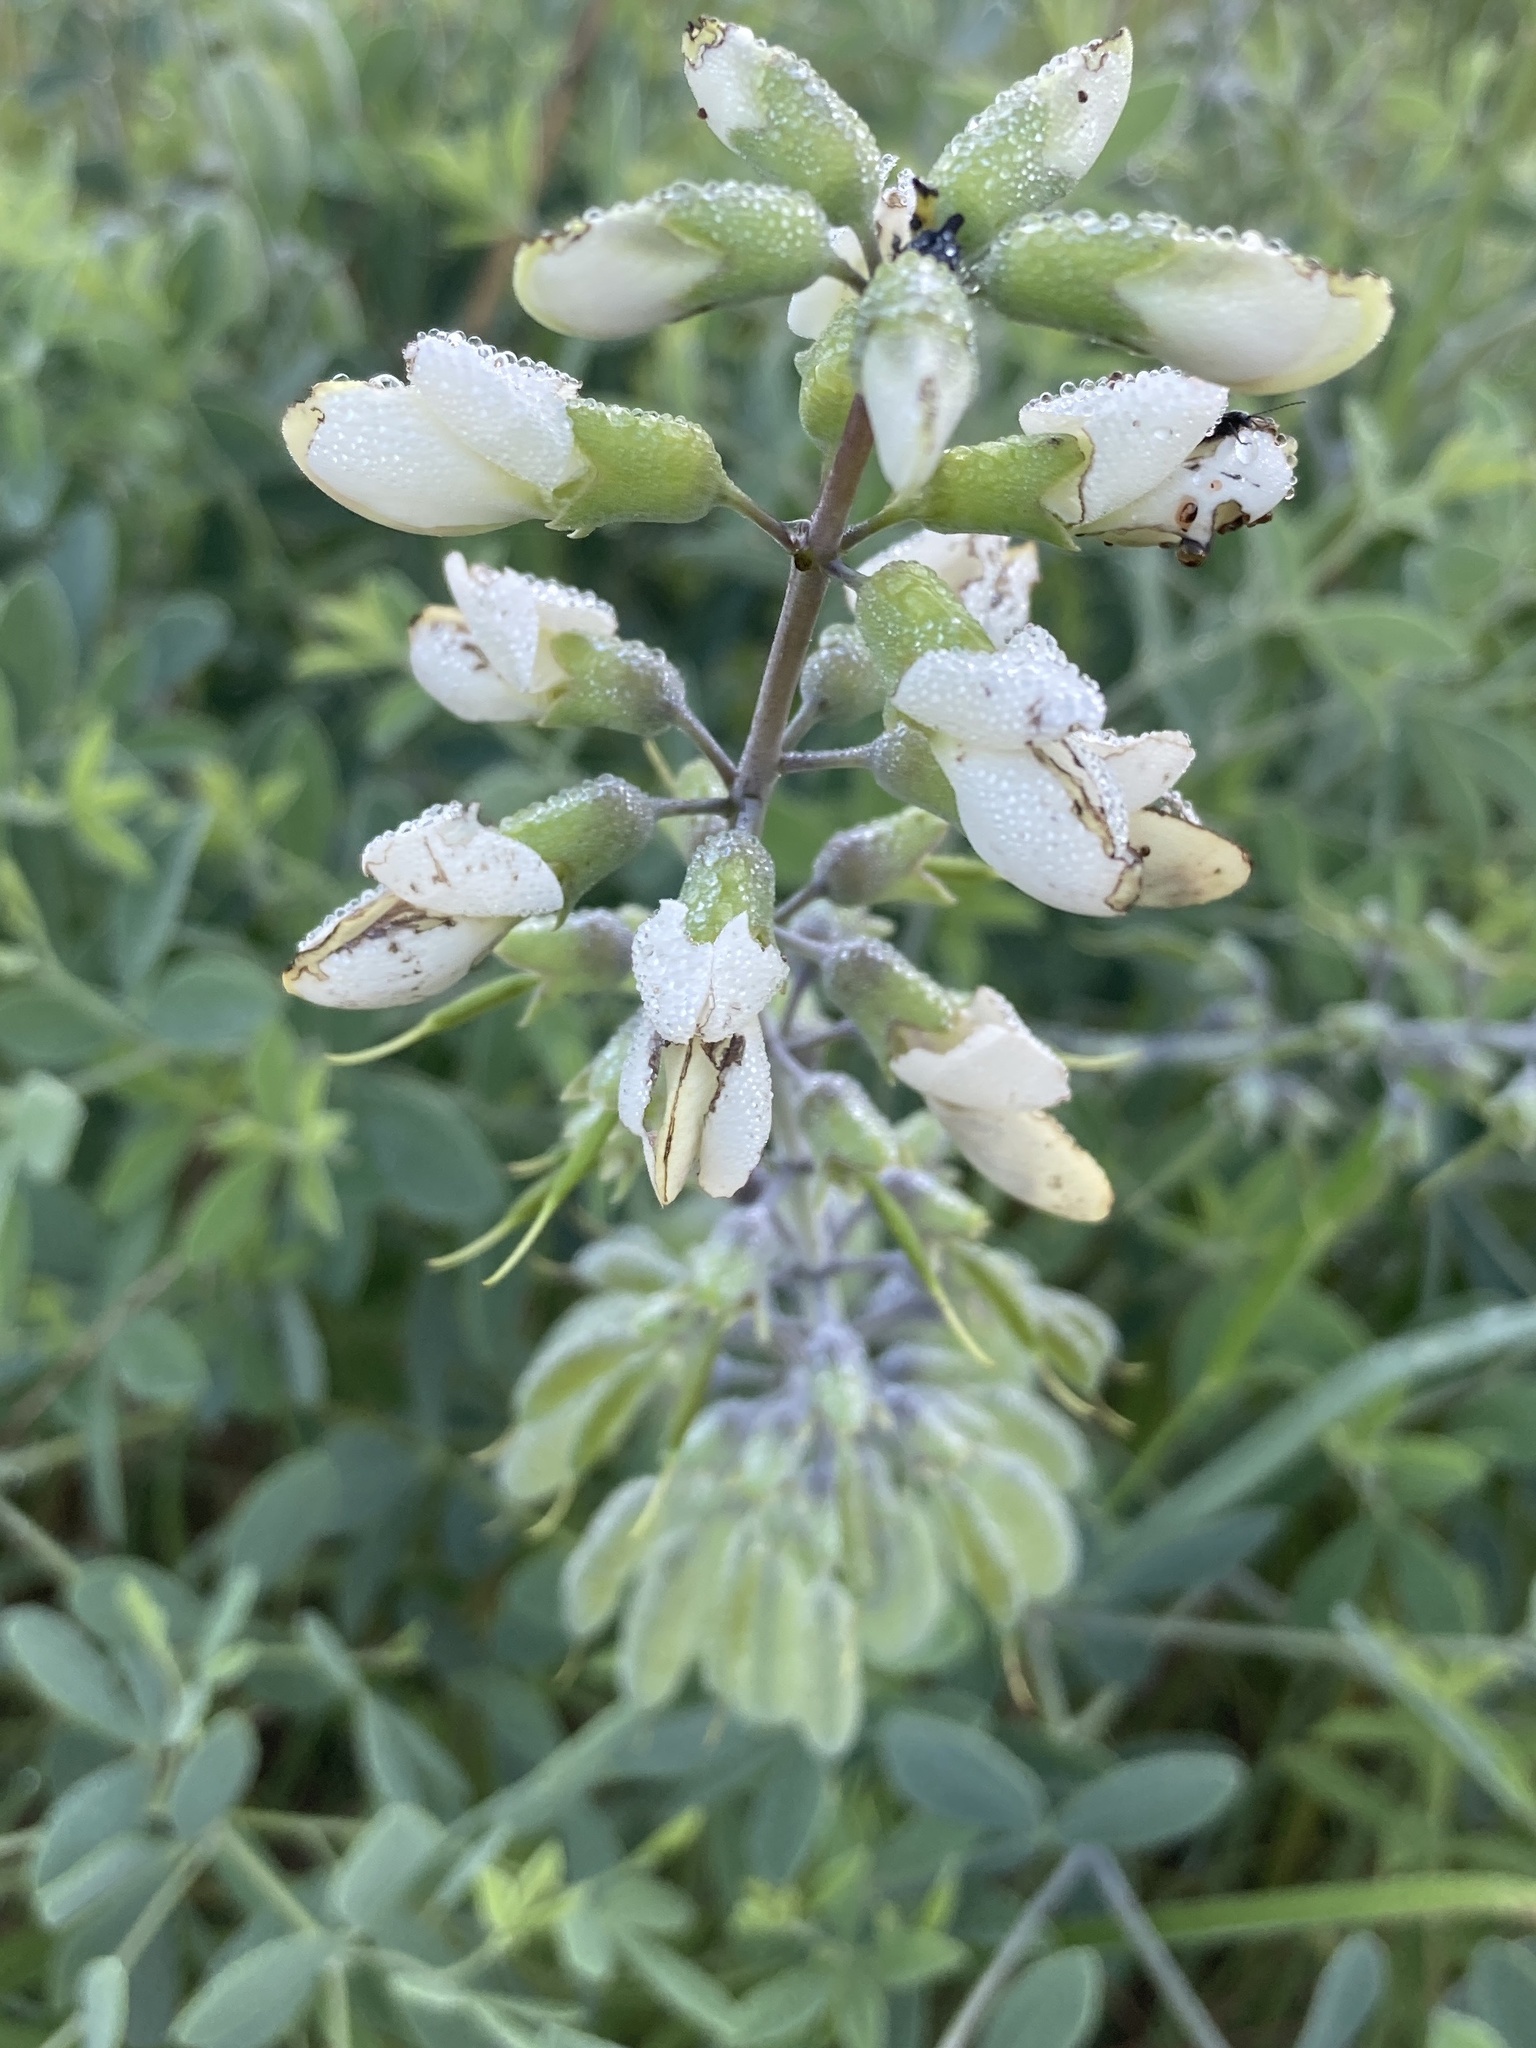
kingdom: Plantae
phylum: Tracheophyta
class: Magnoliopsida
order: Fabales
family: Fabaceae
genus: Baptisia
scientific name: Baptisia alba
